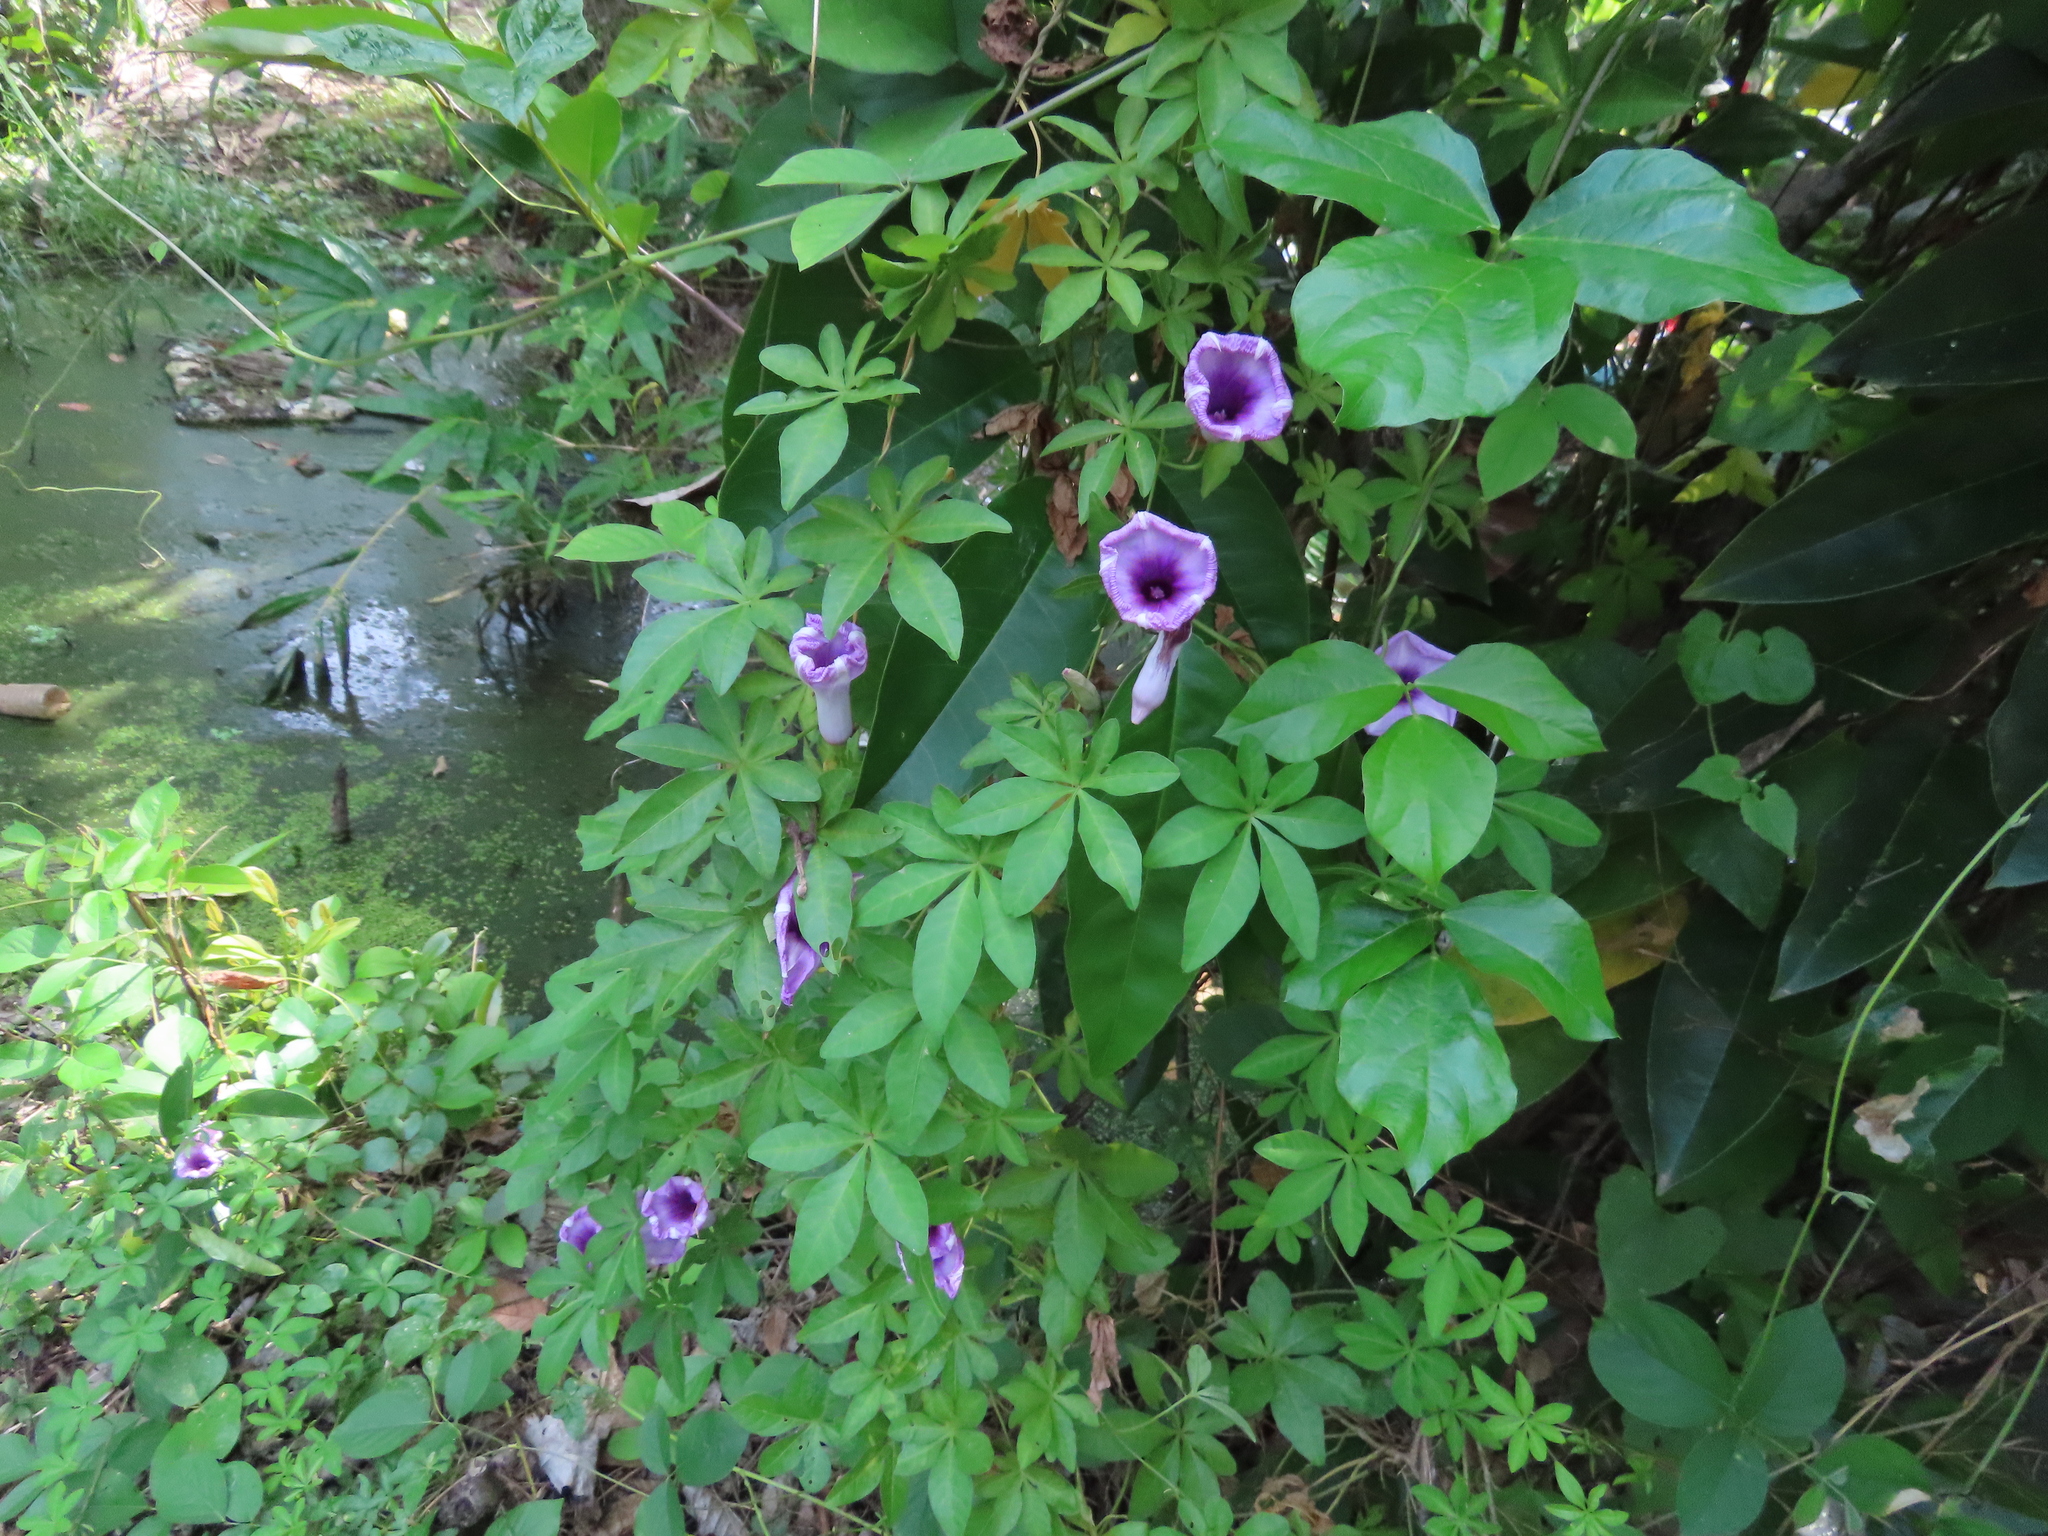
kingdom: Plantae
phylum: Tracheophyta
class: Magnoliopsida
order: Solanales
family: Convolvulaceae
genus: Ipomoea
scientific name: Ipomoea cairica
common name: Mile a minute vine
